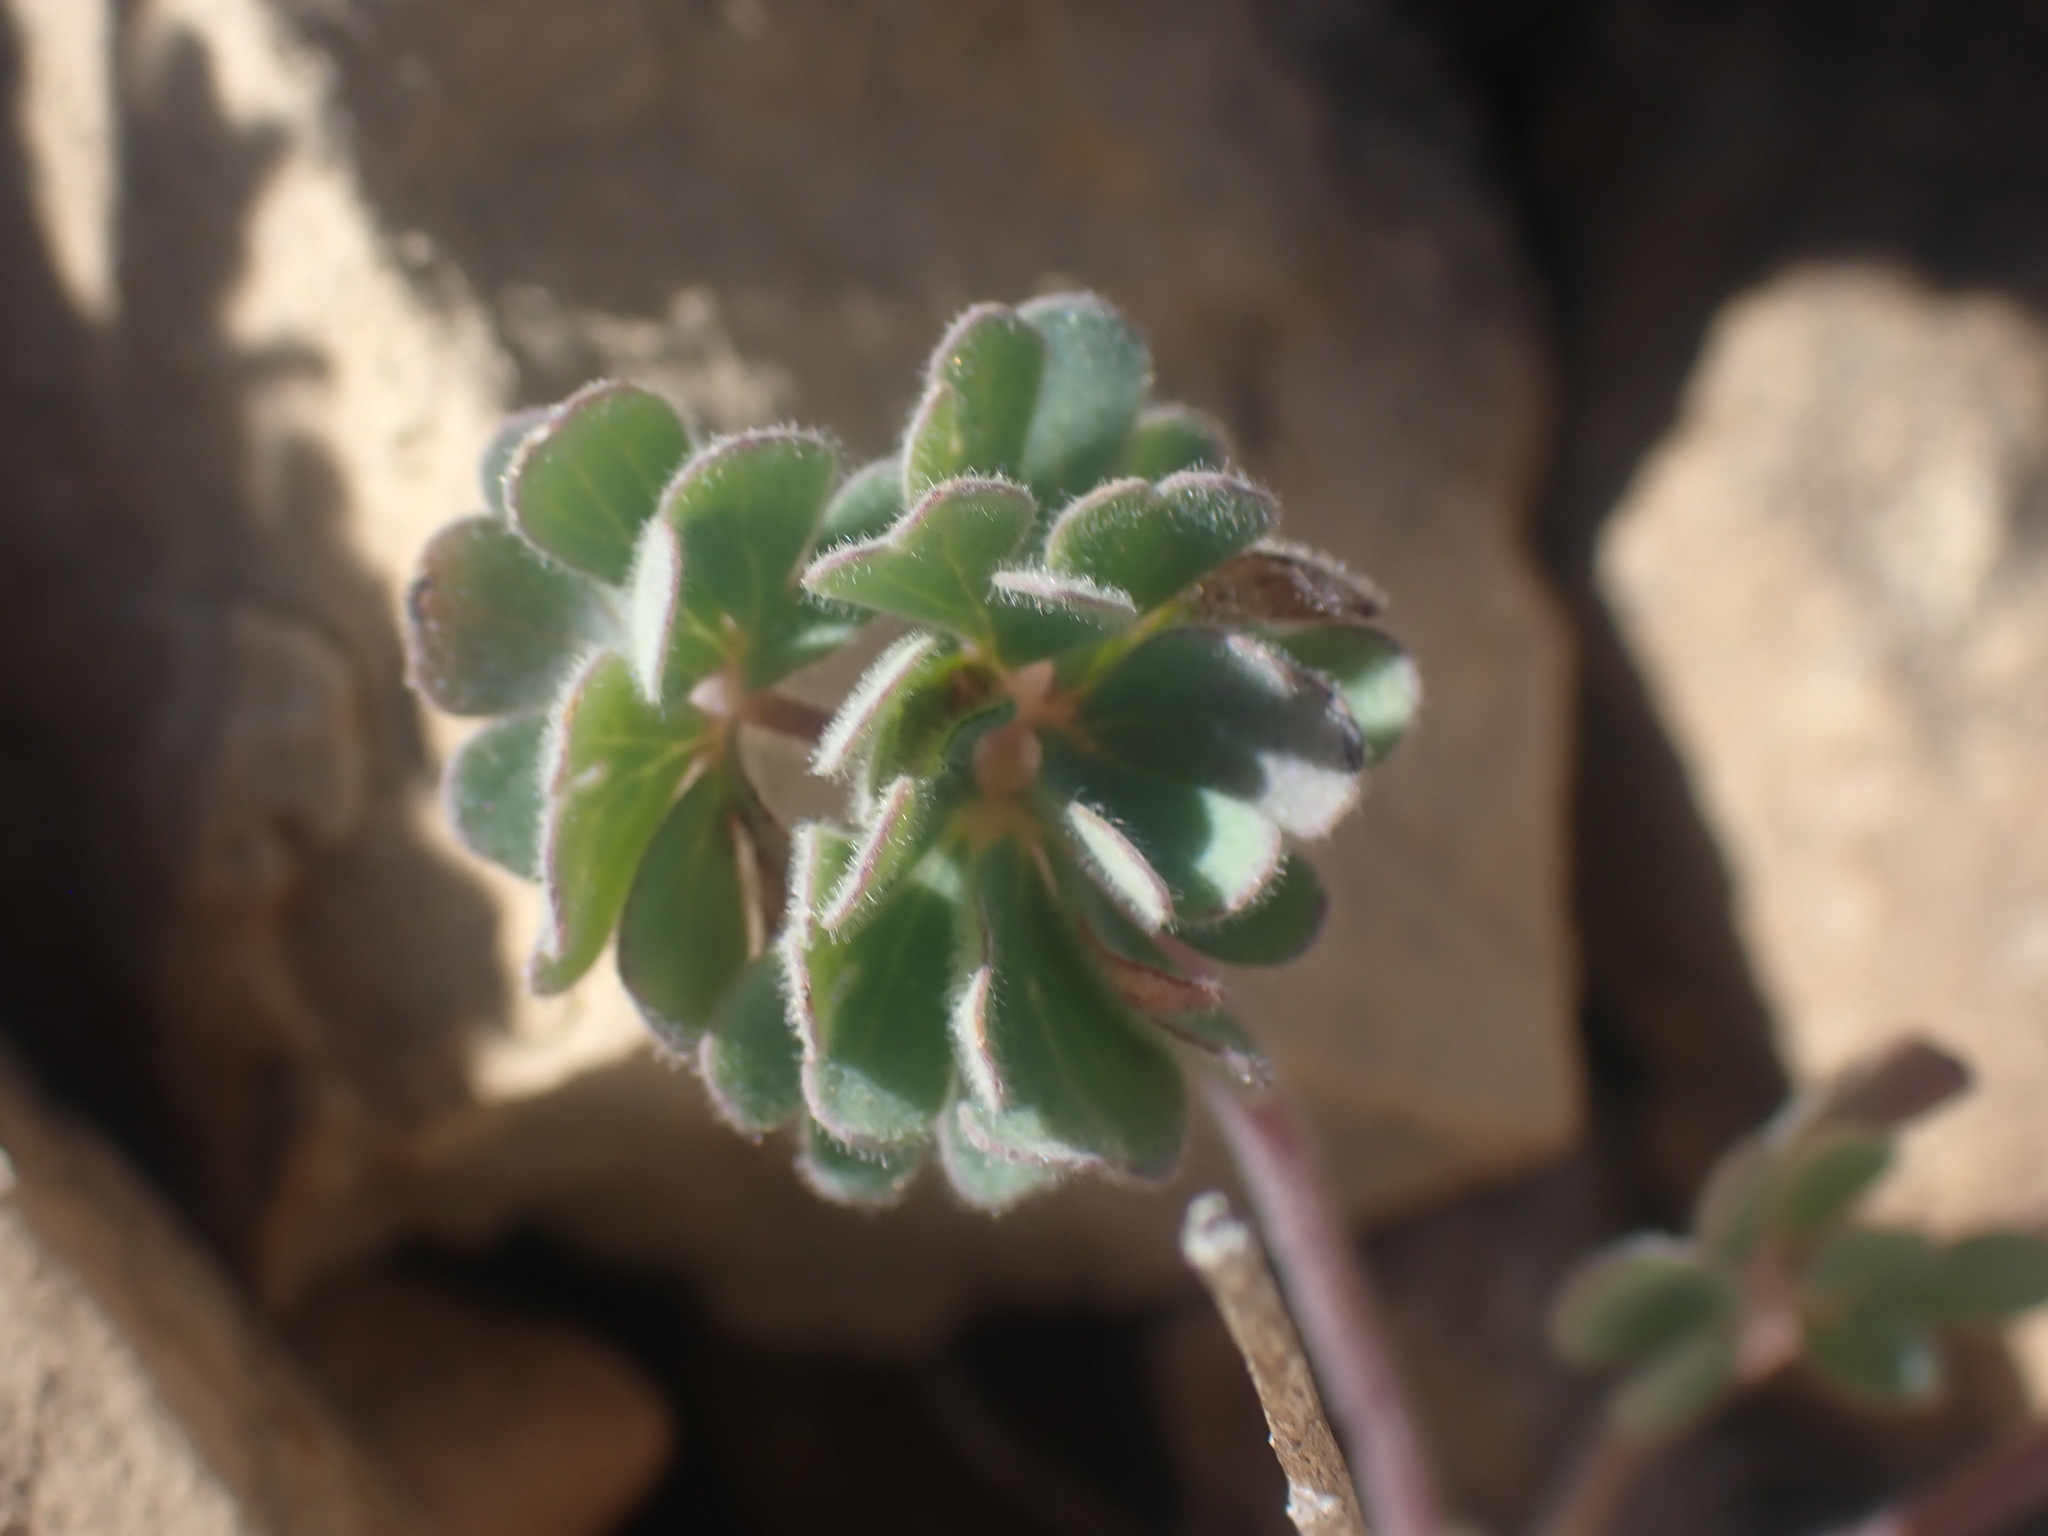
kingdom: Plantae
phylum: Tracheophyta
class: Magnoliopsida
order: Ranunculales
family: Ranunculaceae
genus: Aquilegia
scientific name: Aquilegia jonesii
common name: Jones' columbine
